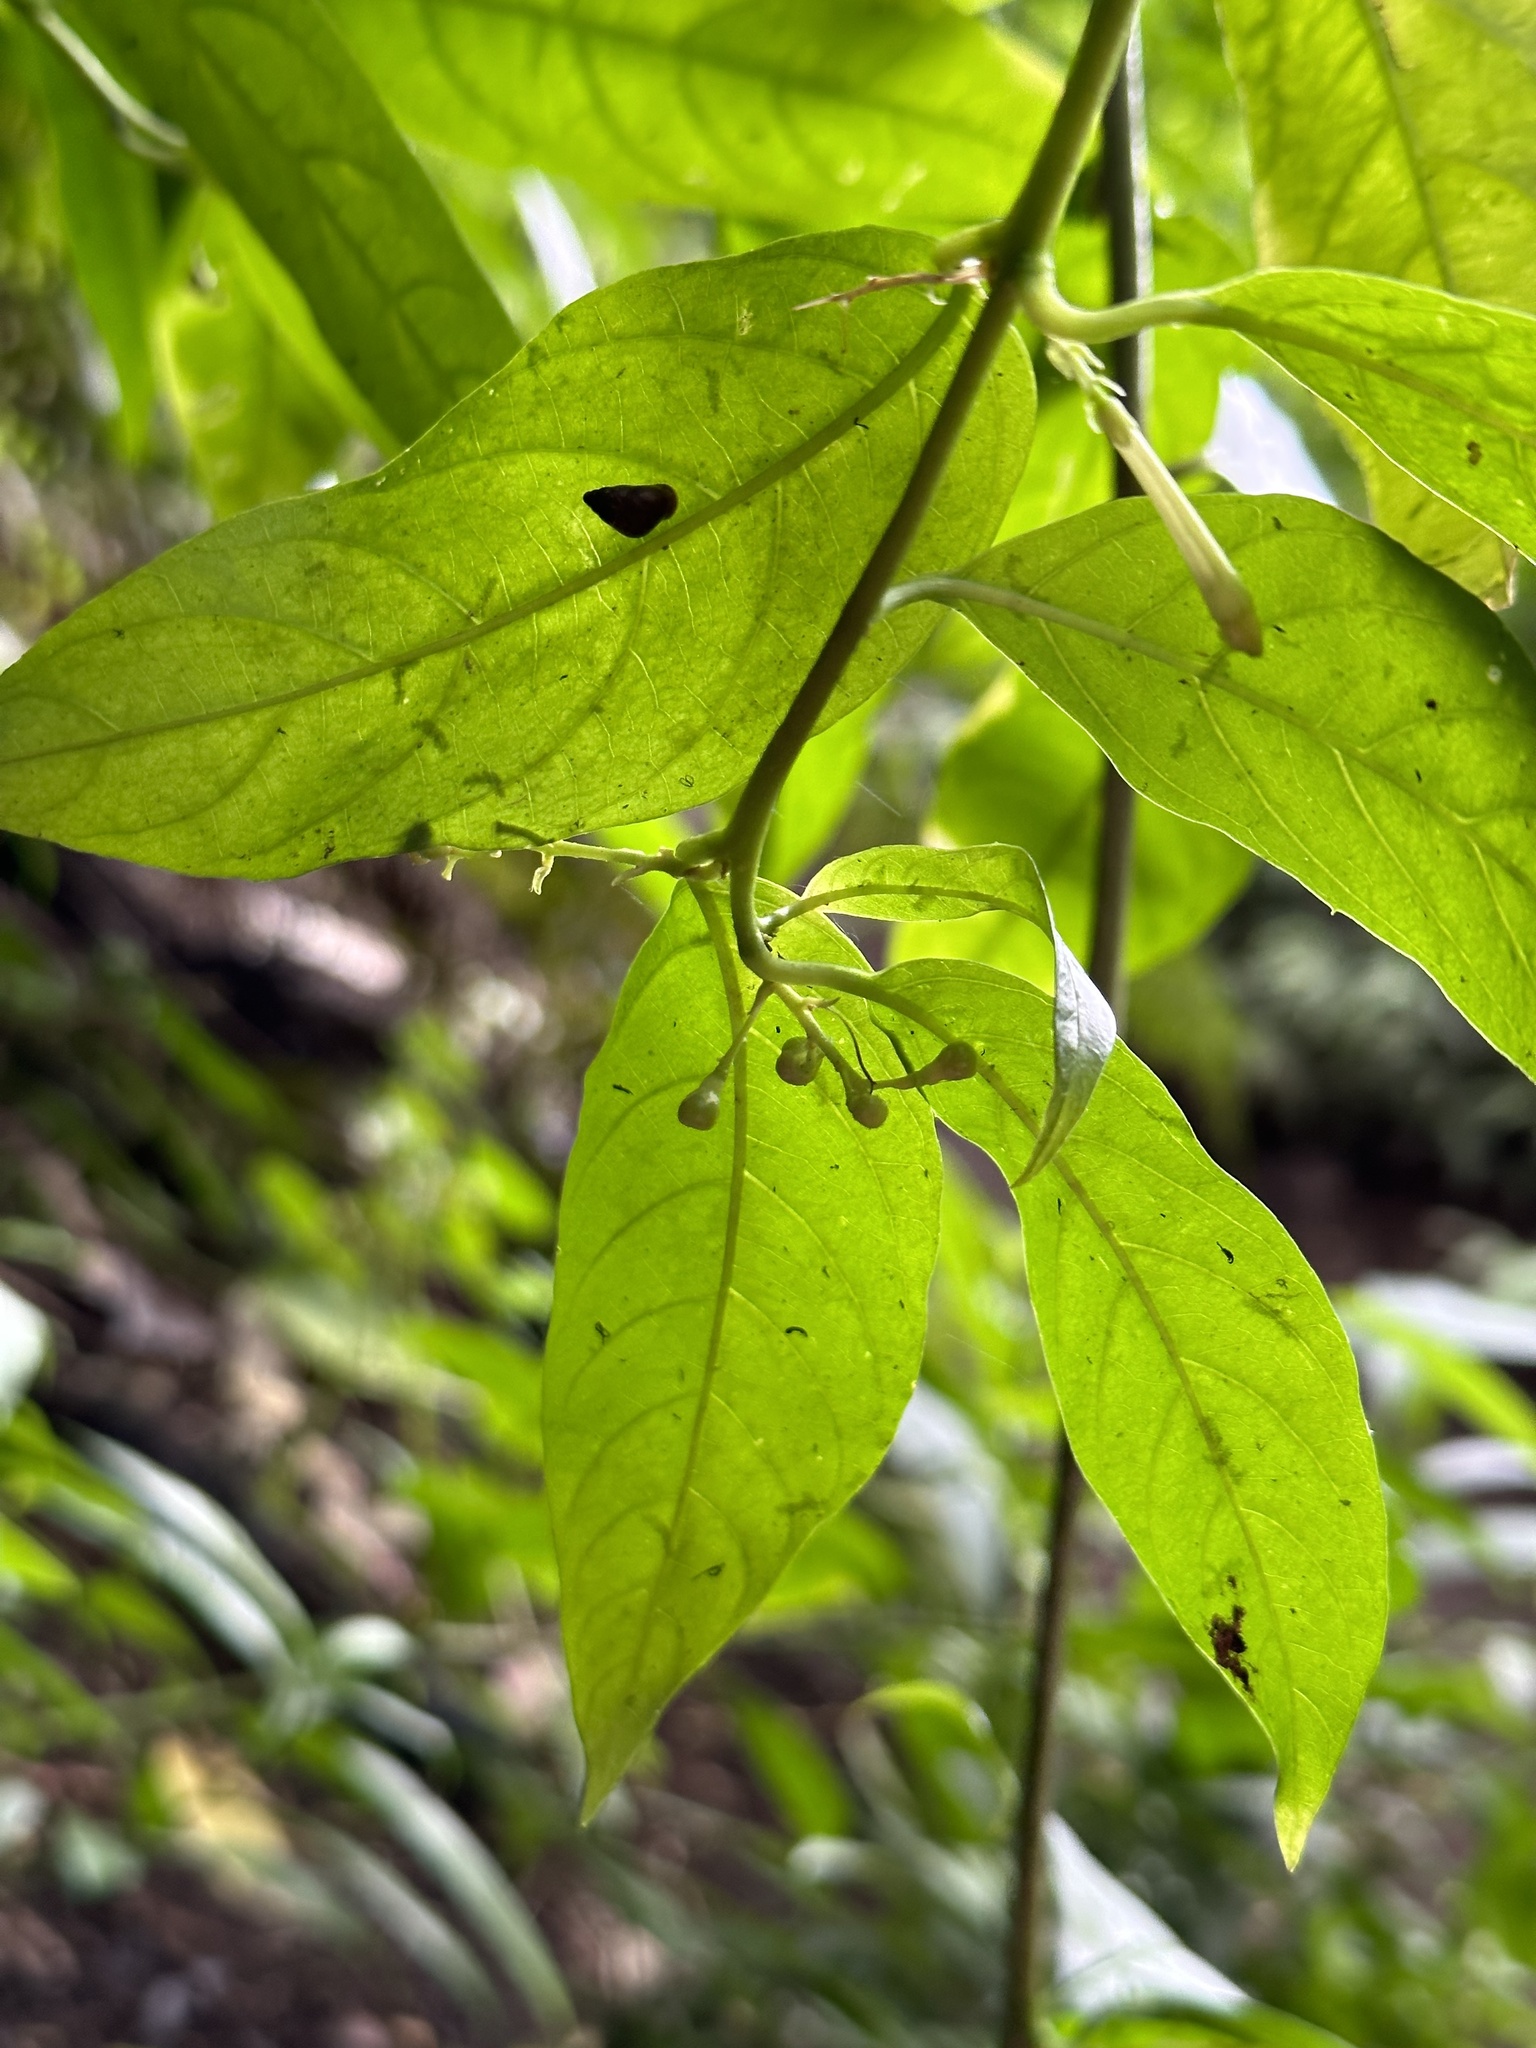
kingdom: Plantae
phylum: Tracheophyta
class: Magnoliopsida
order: Solanales
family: Solanaceae
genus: Cestrum
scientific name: Cestrum nocturnum
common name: Night jessamine
